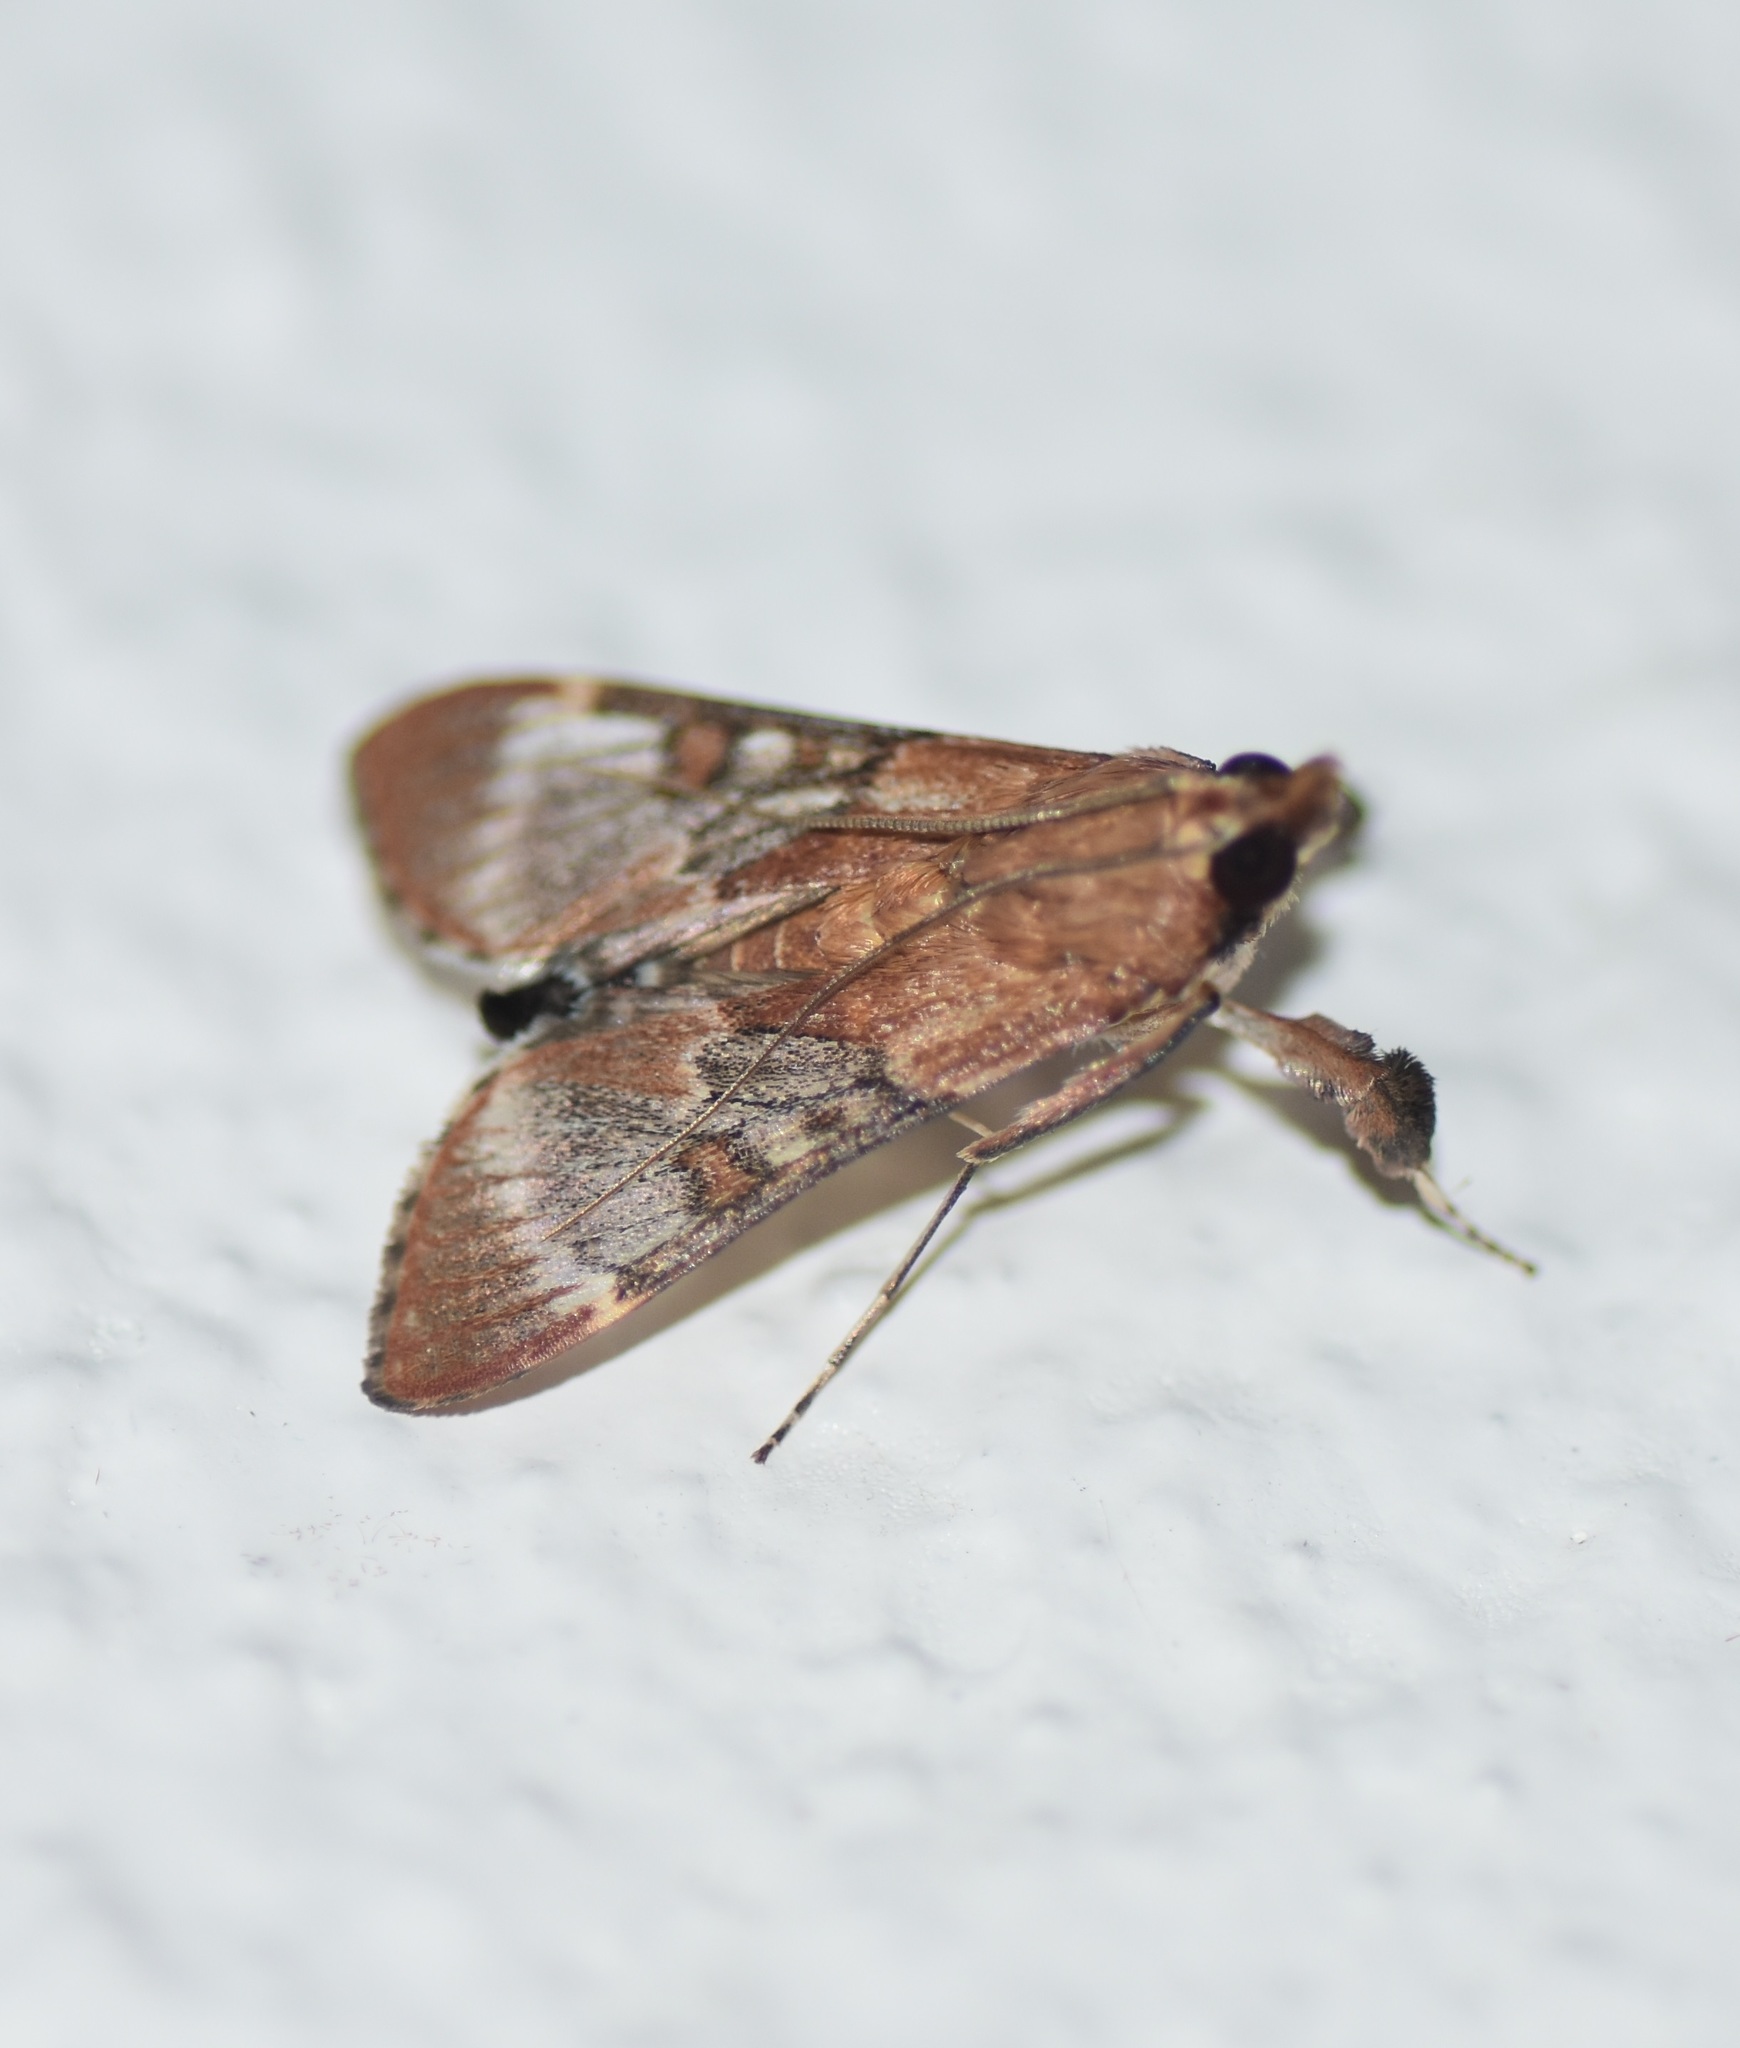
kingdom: Animalia
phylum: Arthropoda
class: Insecta
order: Lepidoptera
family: Crambidae
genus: Omiodes
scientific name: Omiodes stigmosalis
